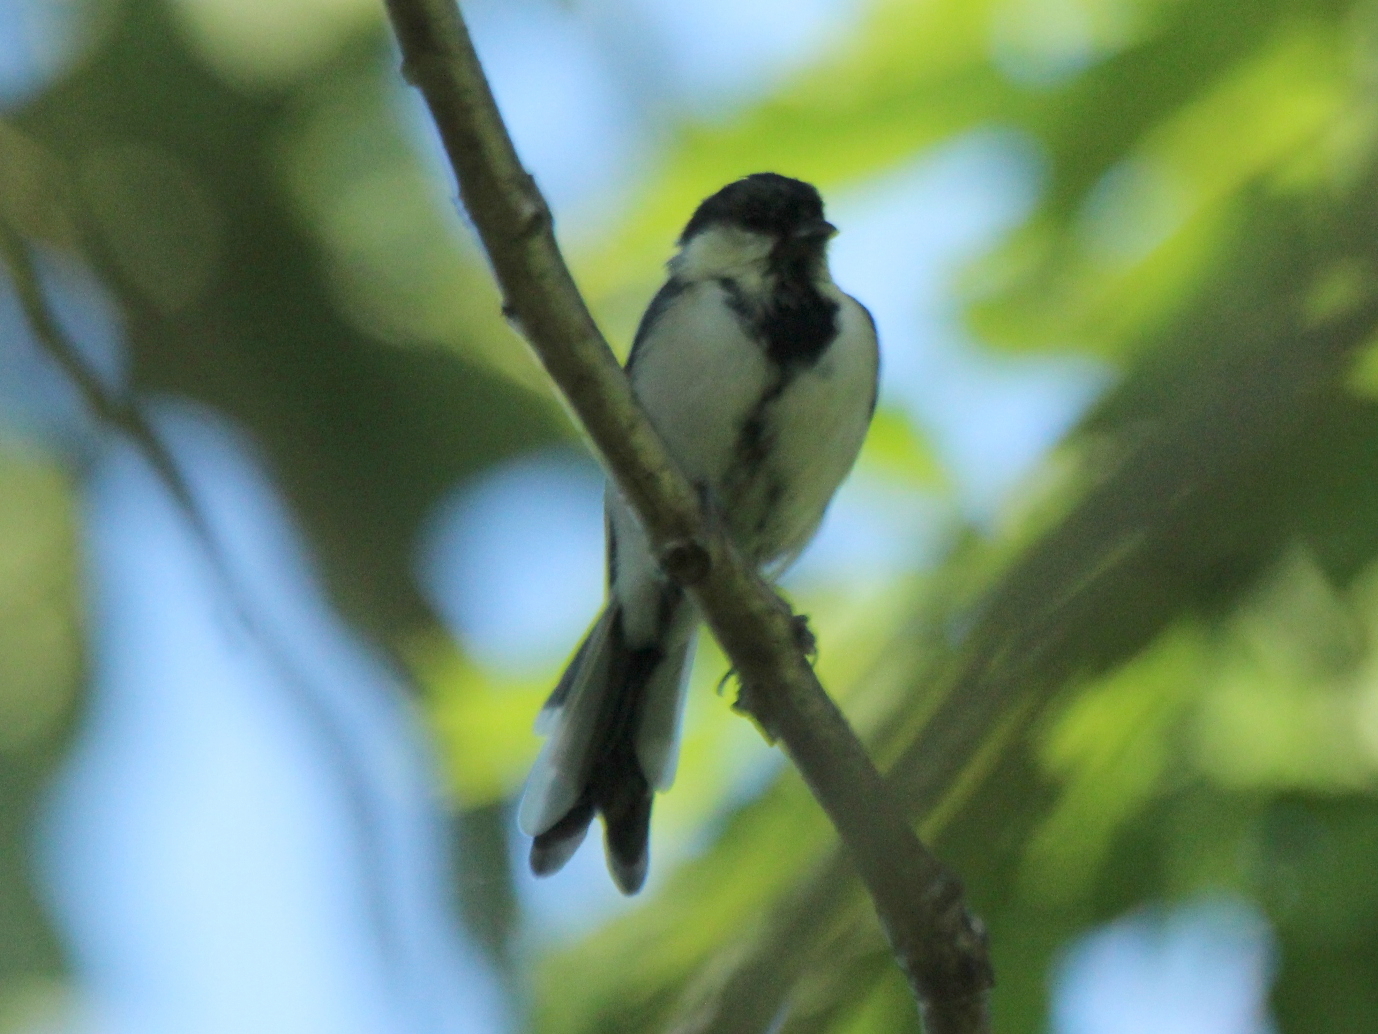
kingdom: Animalia
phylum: Chordata
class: Aves
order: Passeriformes
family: Paridae
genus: Parus
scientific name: Parus minor
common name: Japanese tit
